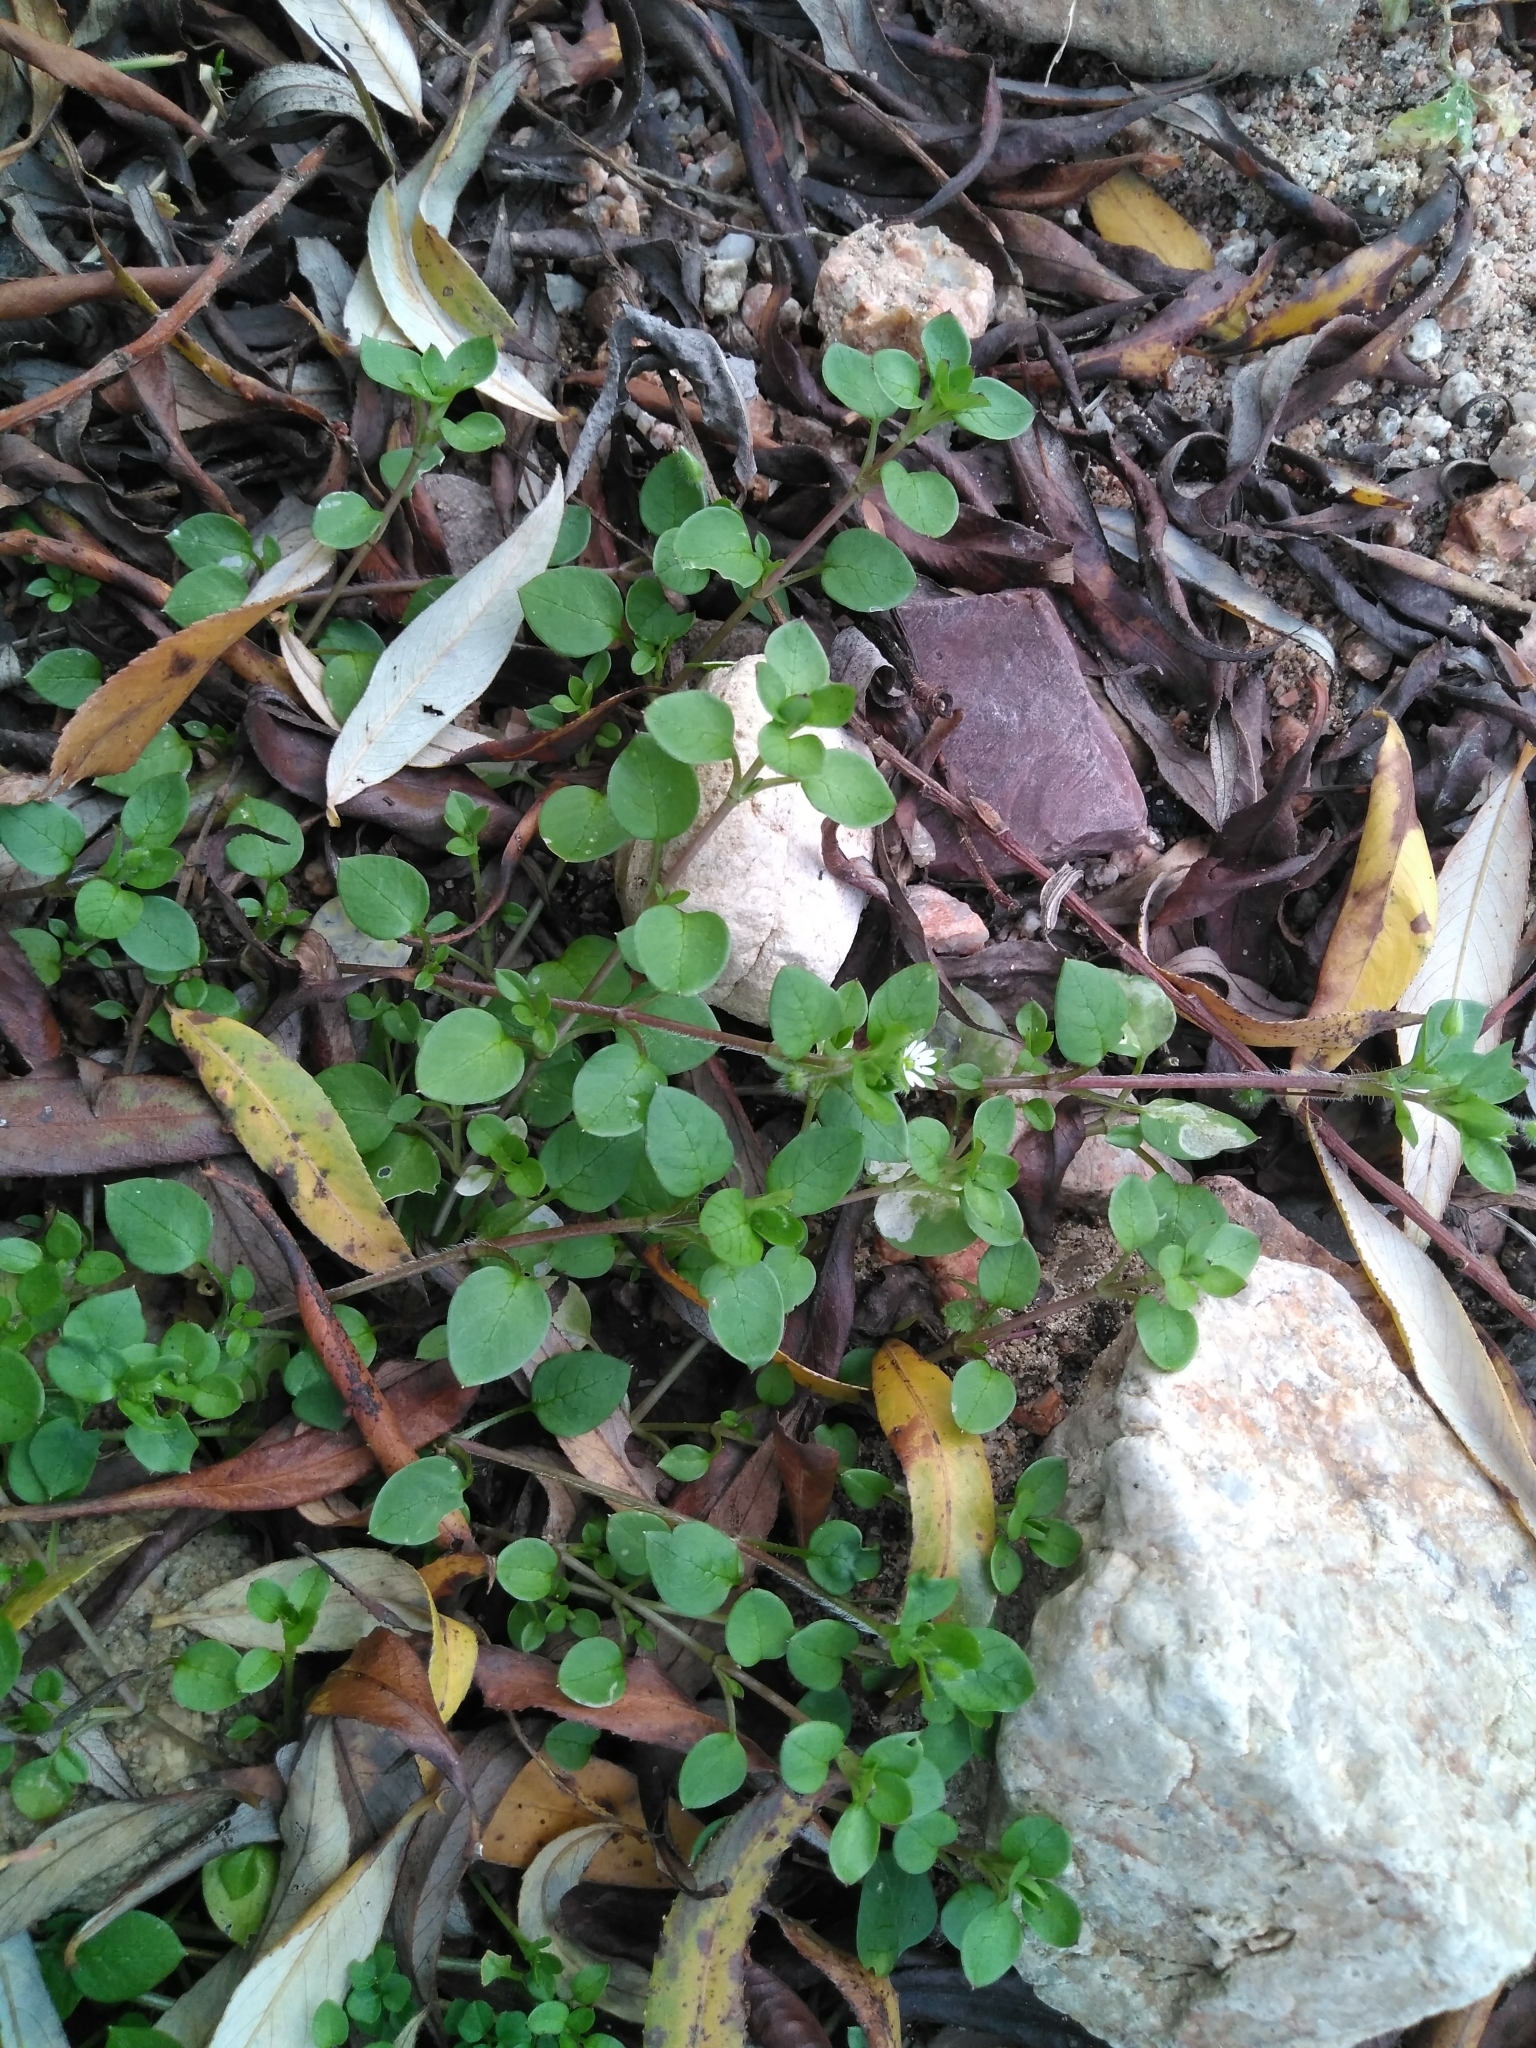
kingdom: Plantae
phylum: Tracheophyta
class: Magnoliopsida
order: Caryophyllales
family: Caryophyllaceae
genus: Stellaria
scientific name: Stellaria media
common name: Common chickweed
